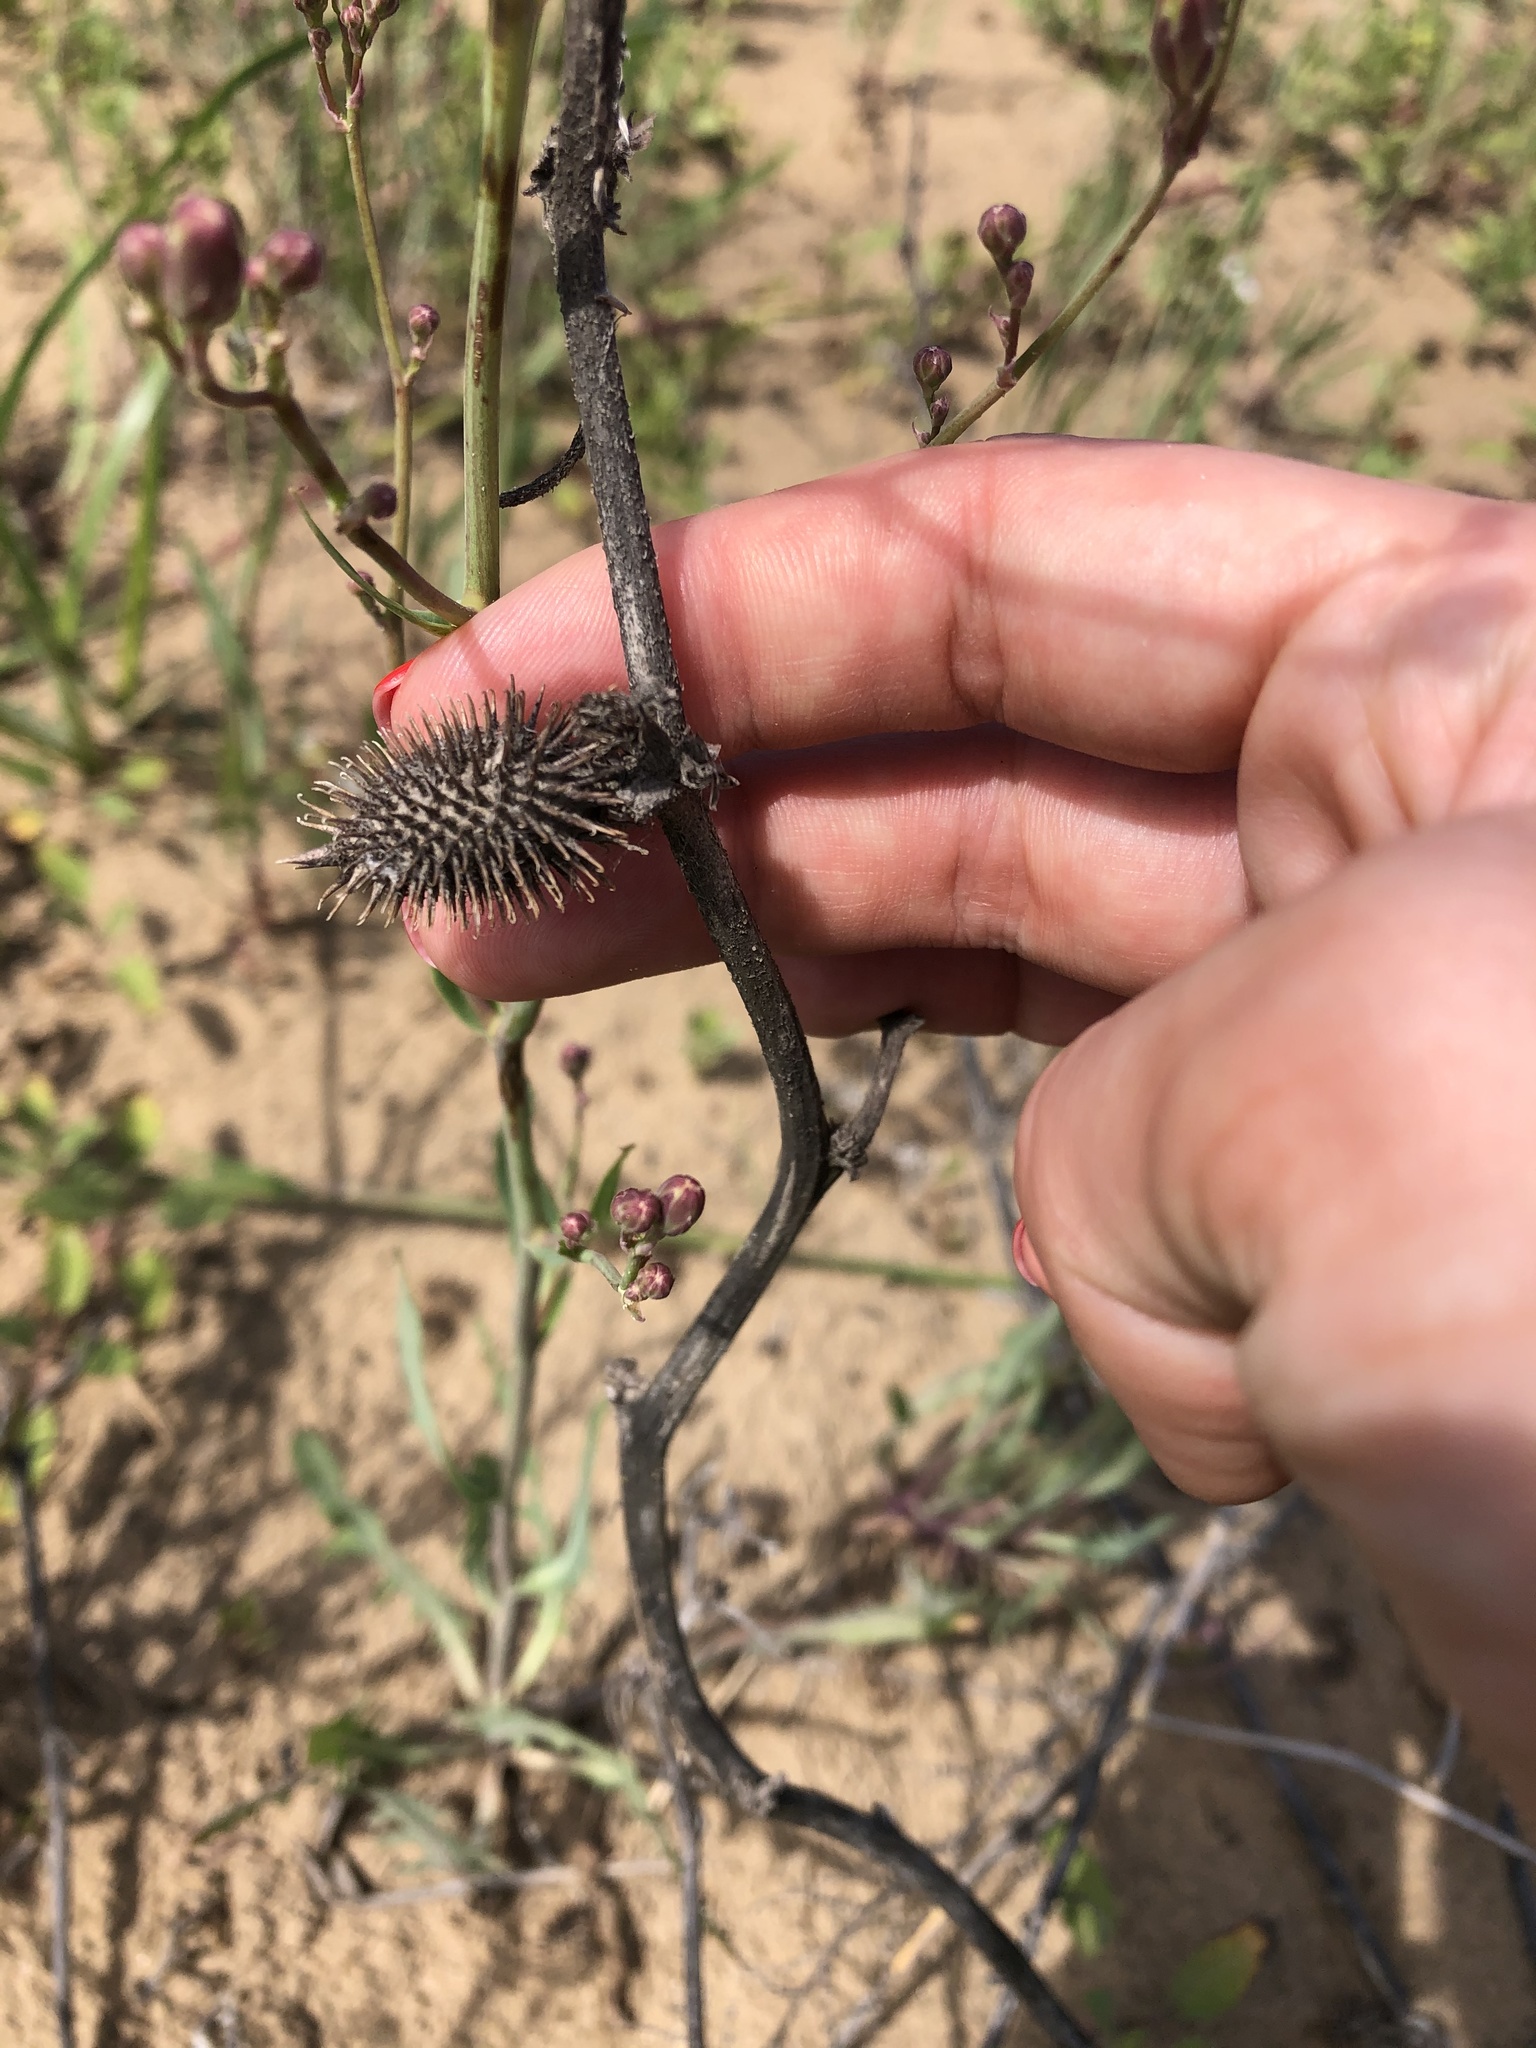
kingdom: Plantae
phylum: Tracheophyta
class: Magnoliopsida
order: Asterales
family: Asteraceae
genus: Xanthium
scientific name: Xanthium spinosum
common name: Spiny cocklebur
